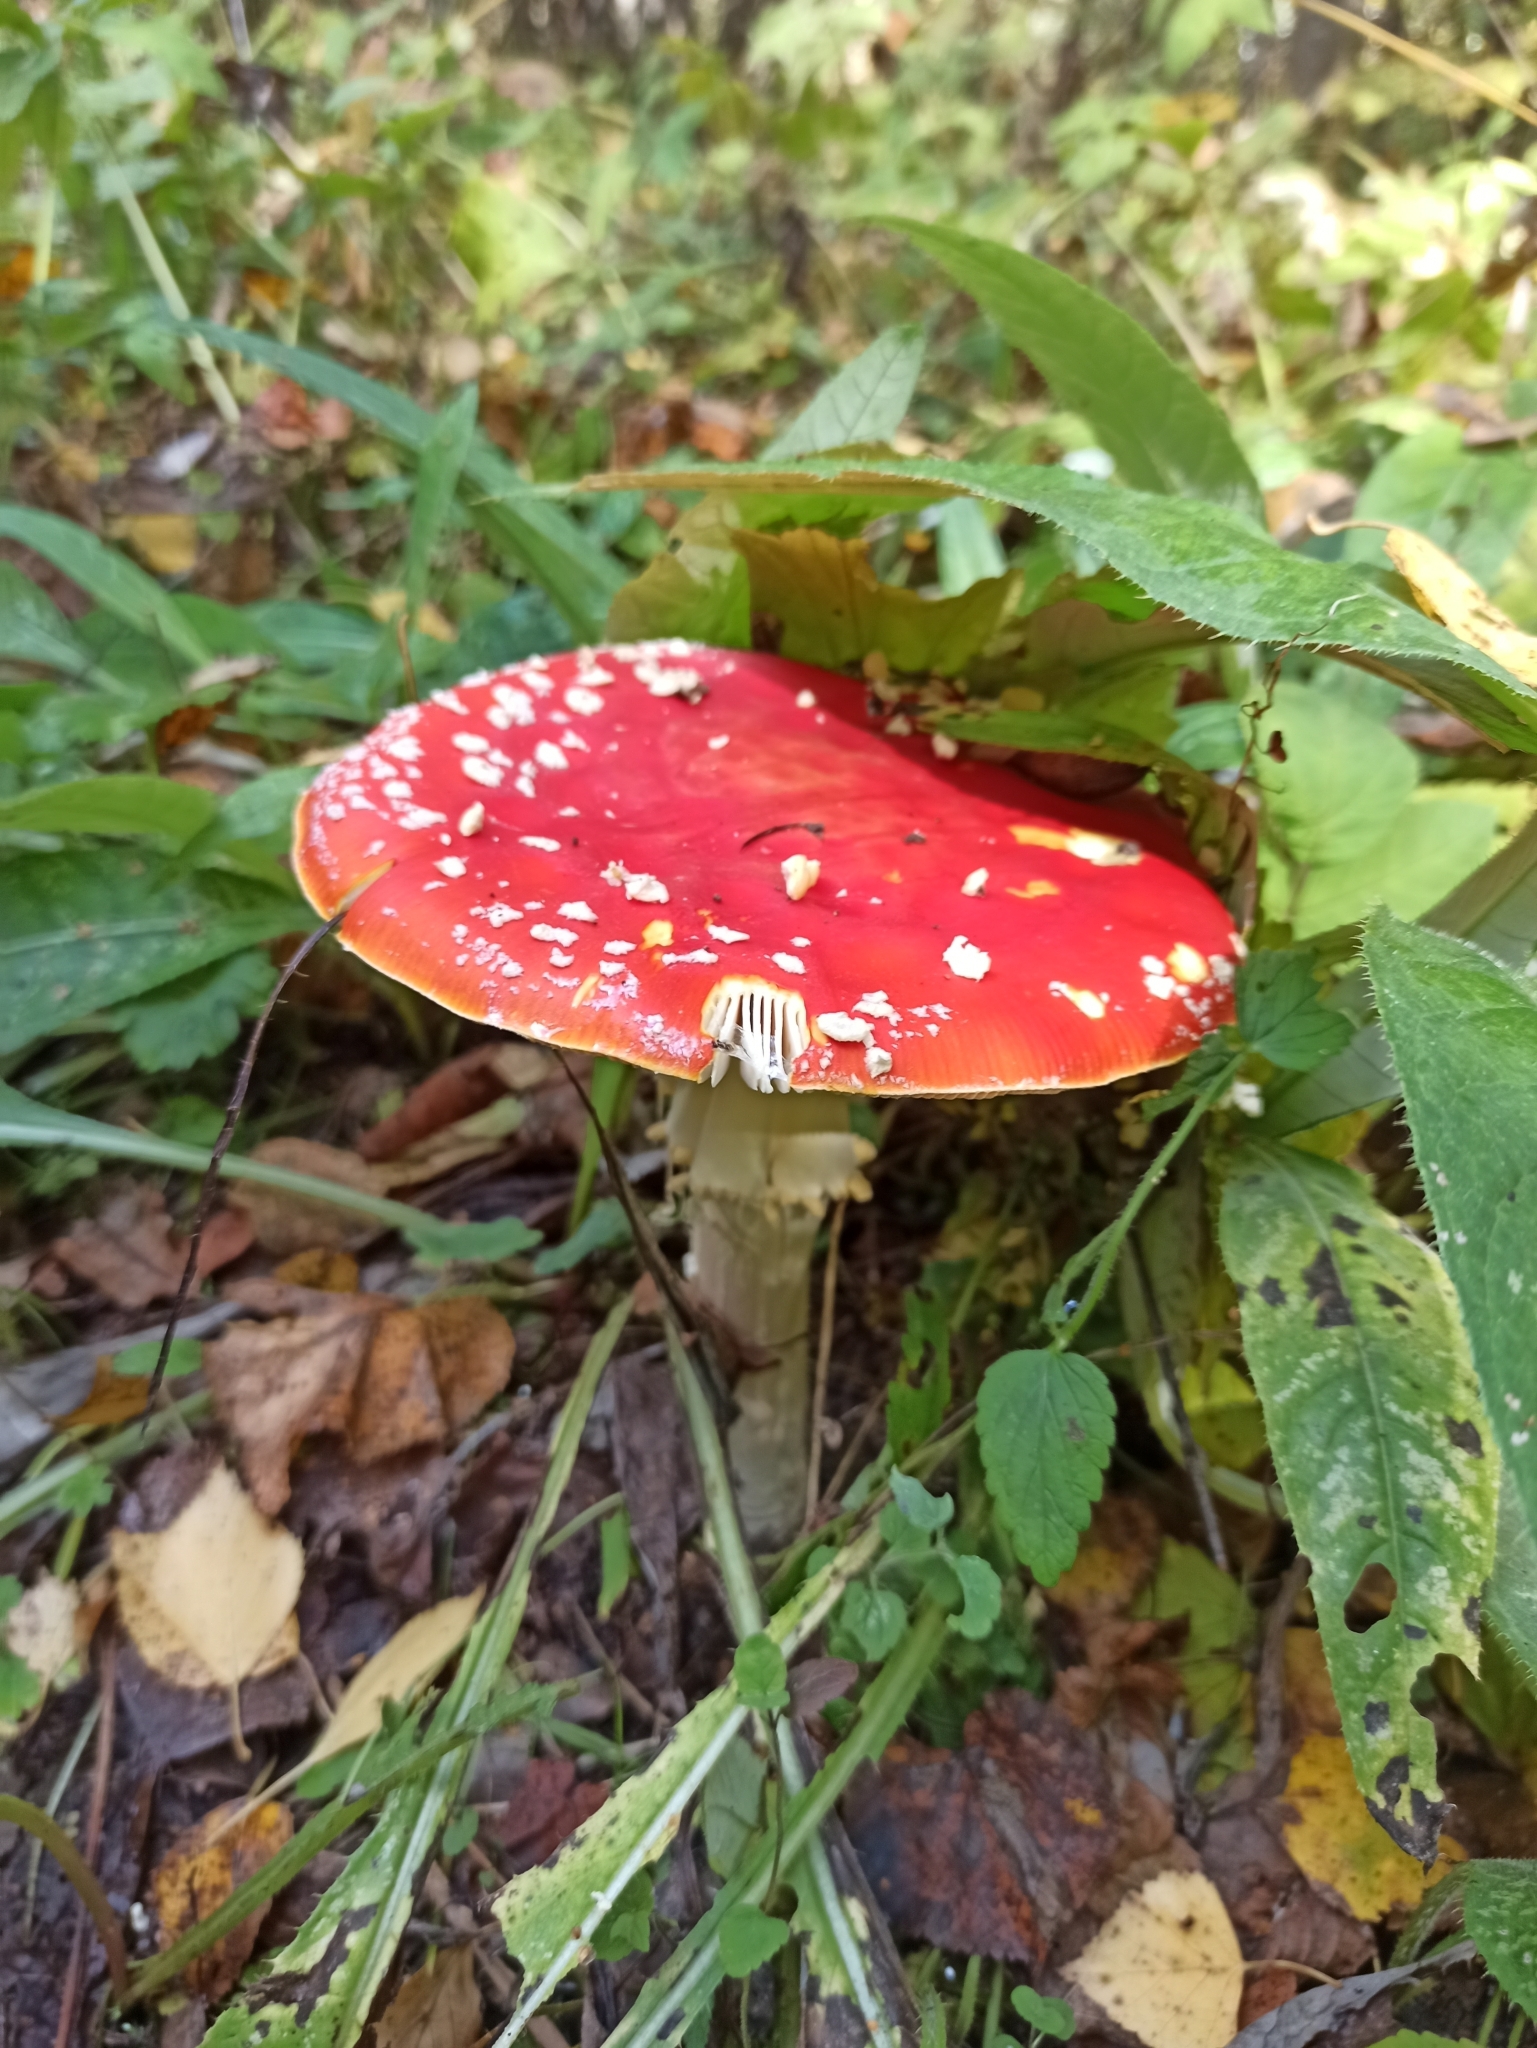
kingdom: Fungi
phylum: Basidiomycota
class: Agaricomycetes
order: Agaricales
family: Amanitaceae
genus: Amanita
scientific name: Amanita muscaria
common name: Fly agaric
